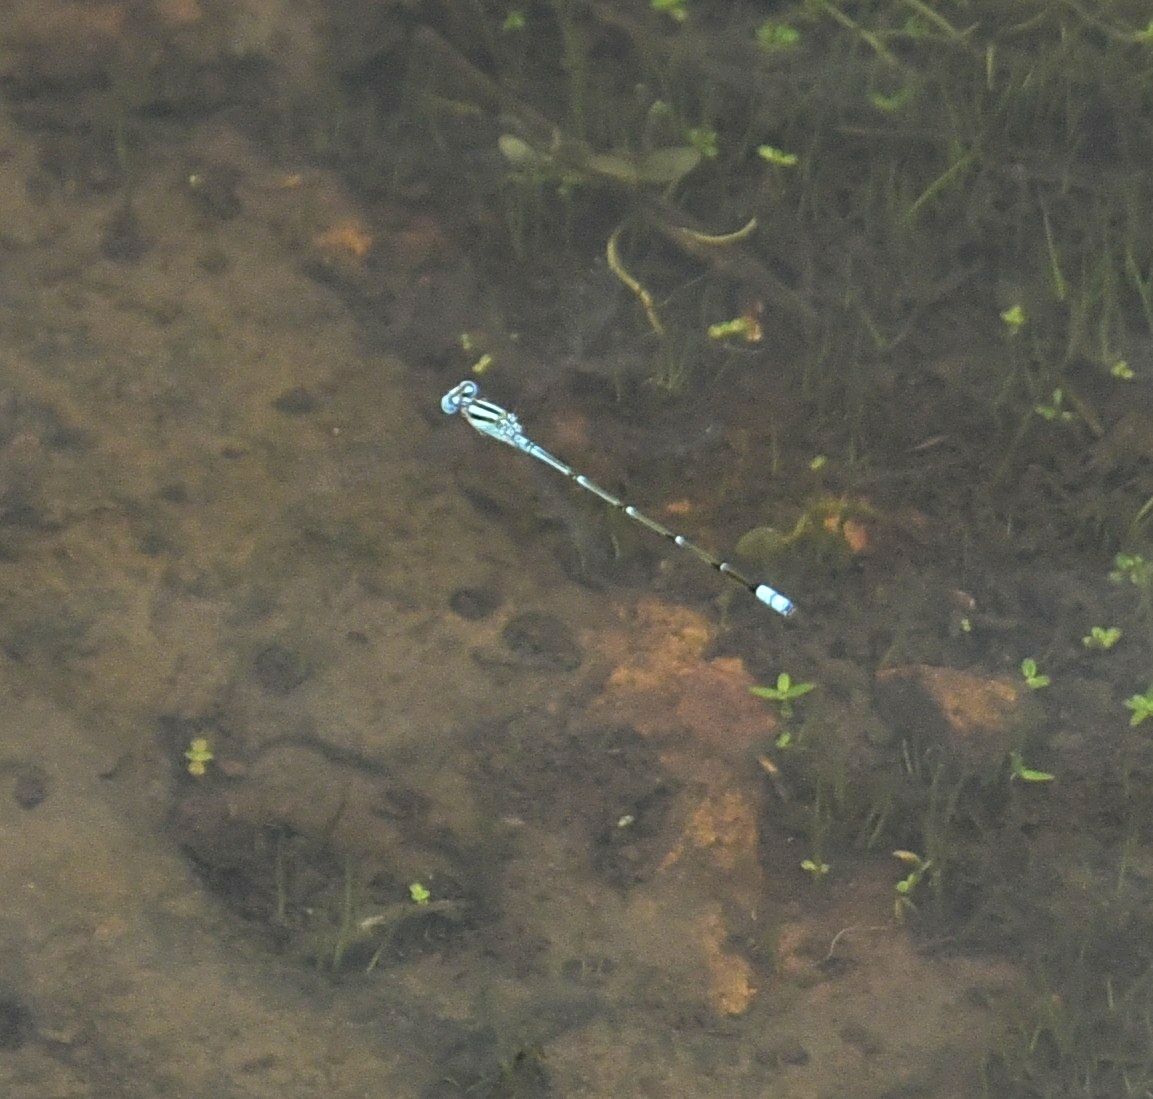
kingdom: Animalia
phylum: Arthropoda
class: Insecta
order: Odonata
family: Coenagrionidae
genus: Pseudagrion
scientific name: Pseudagrion microcephalum
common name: Blue riverdamsel
